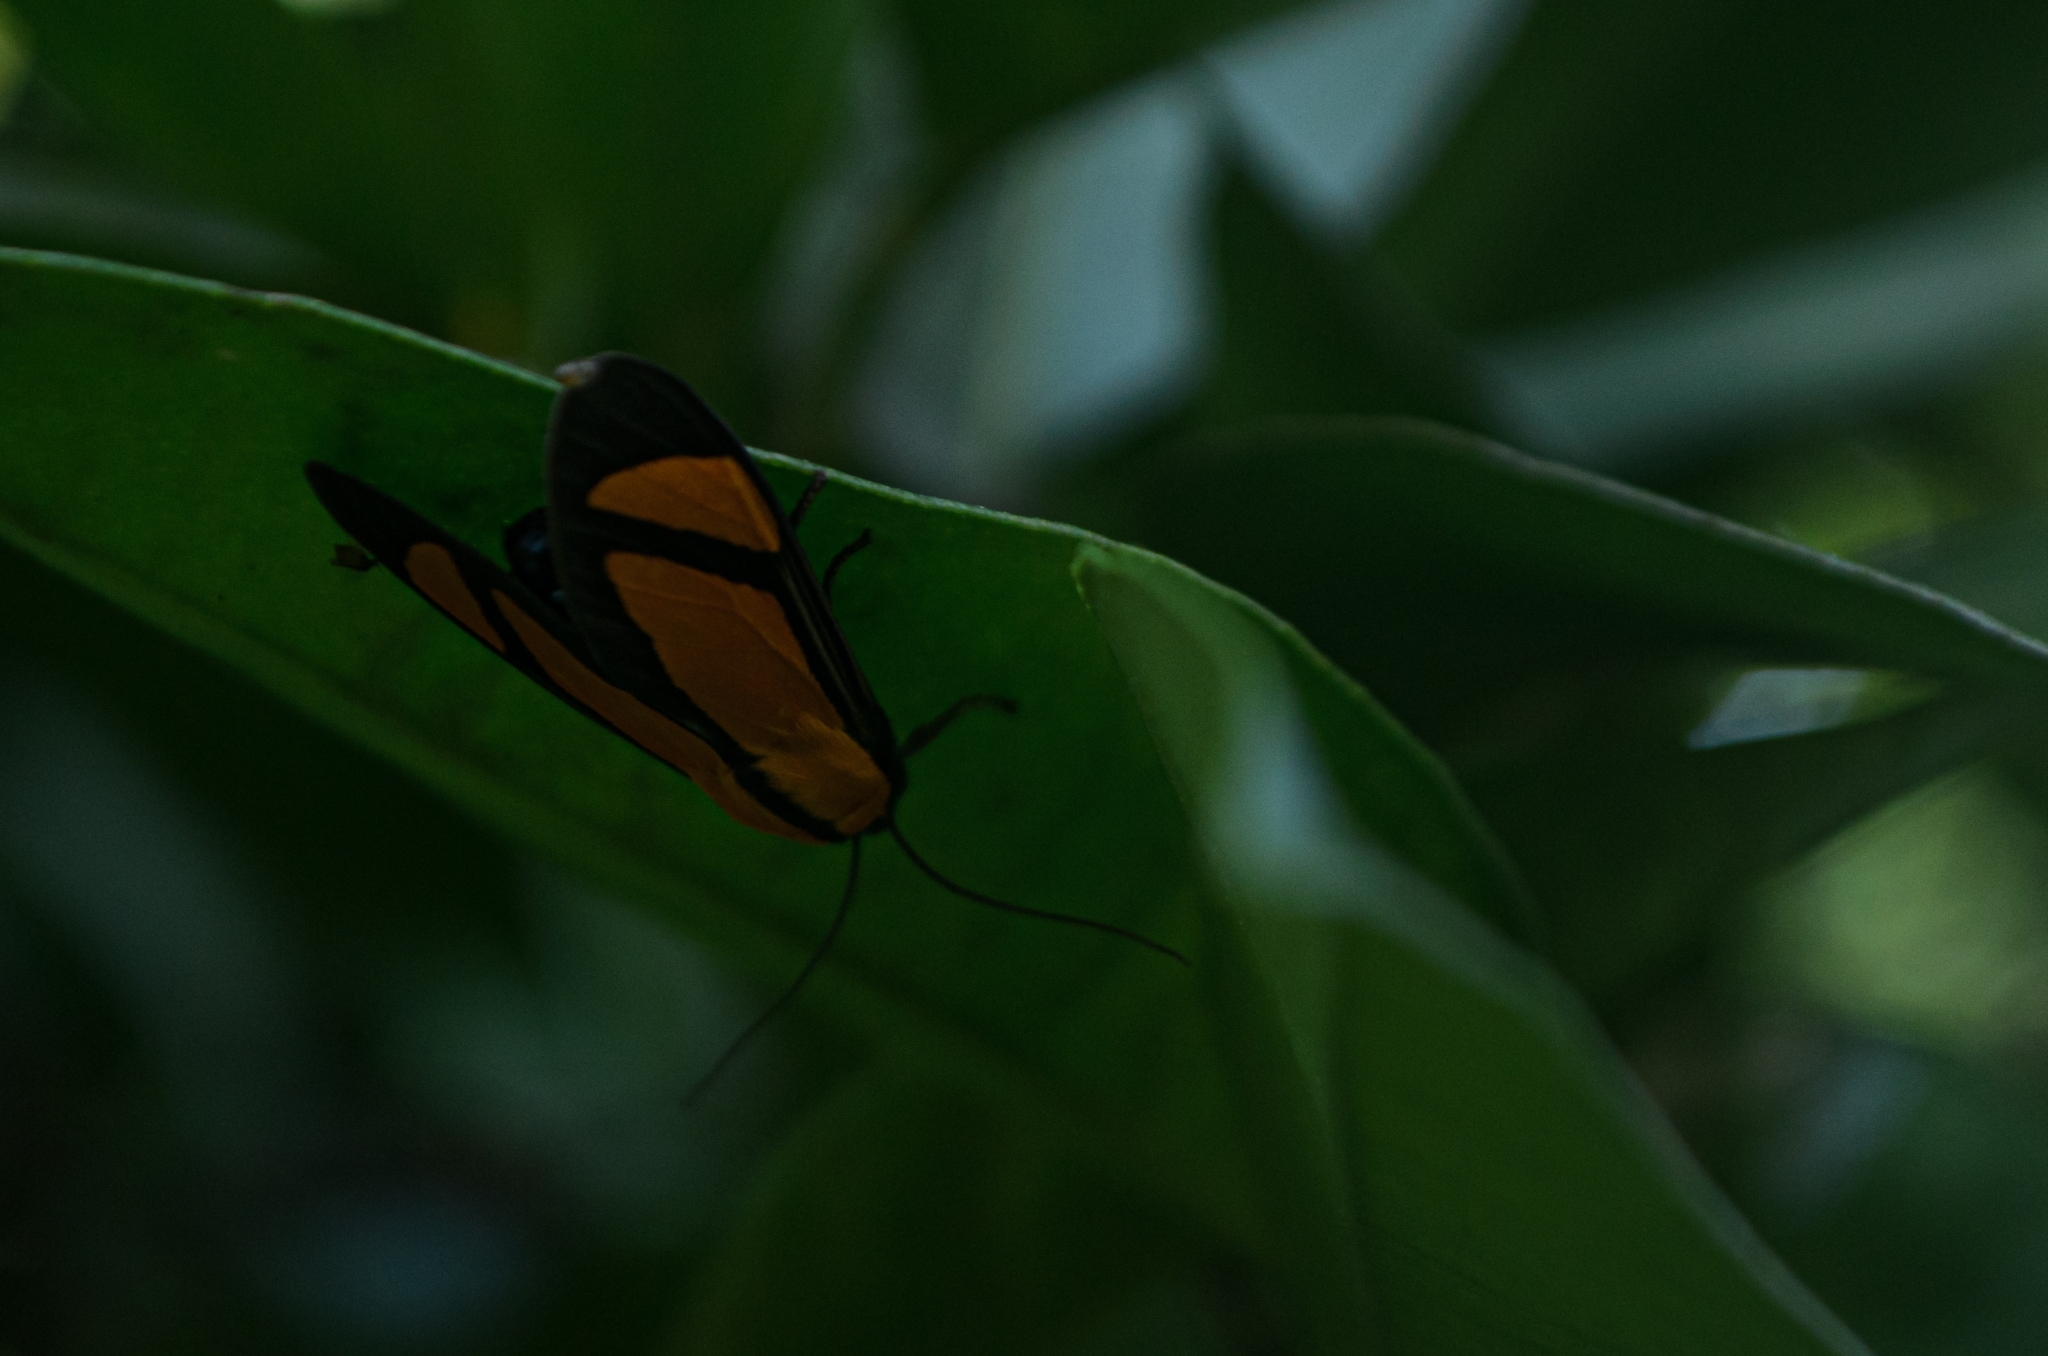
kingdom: Animalia
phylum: Arthropoda
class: Insecta
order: Lepidoptera
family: Erebidae
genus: Ormetica
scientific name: Ormetica chrysomelas
